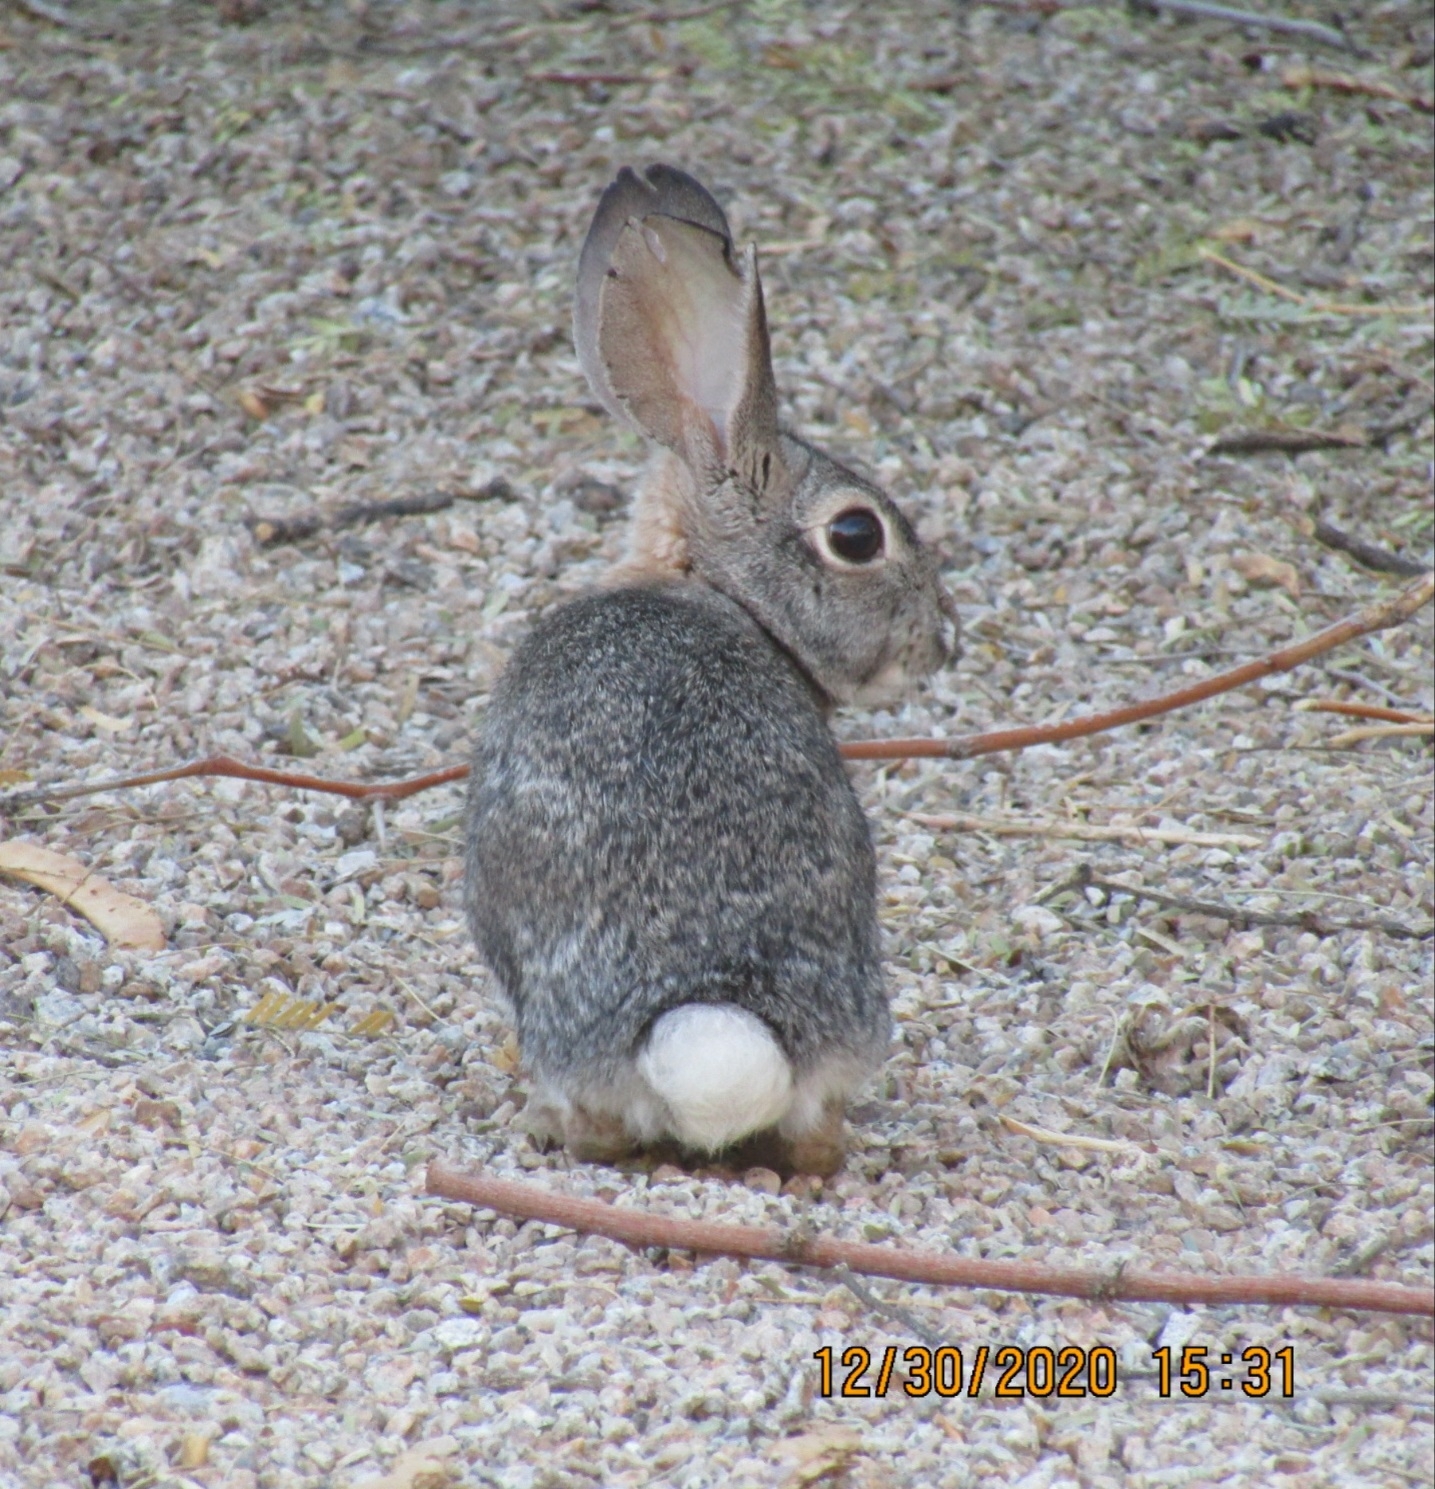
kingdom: Animalia
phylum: Chordata
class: Mammalia
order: Lagomorpha
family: Leporidae
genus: Sylvilagus
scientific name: Sylvilagus audubonii
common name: Desert cottontail
